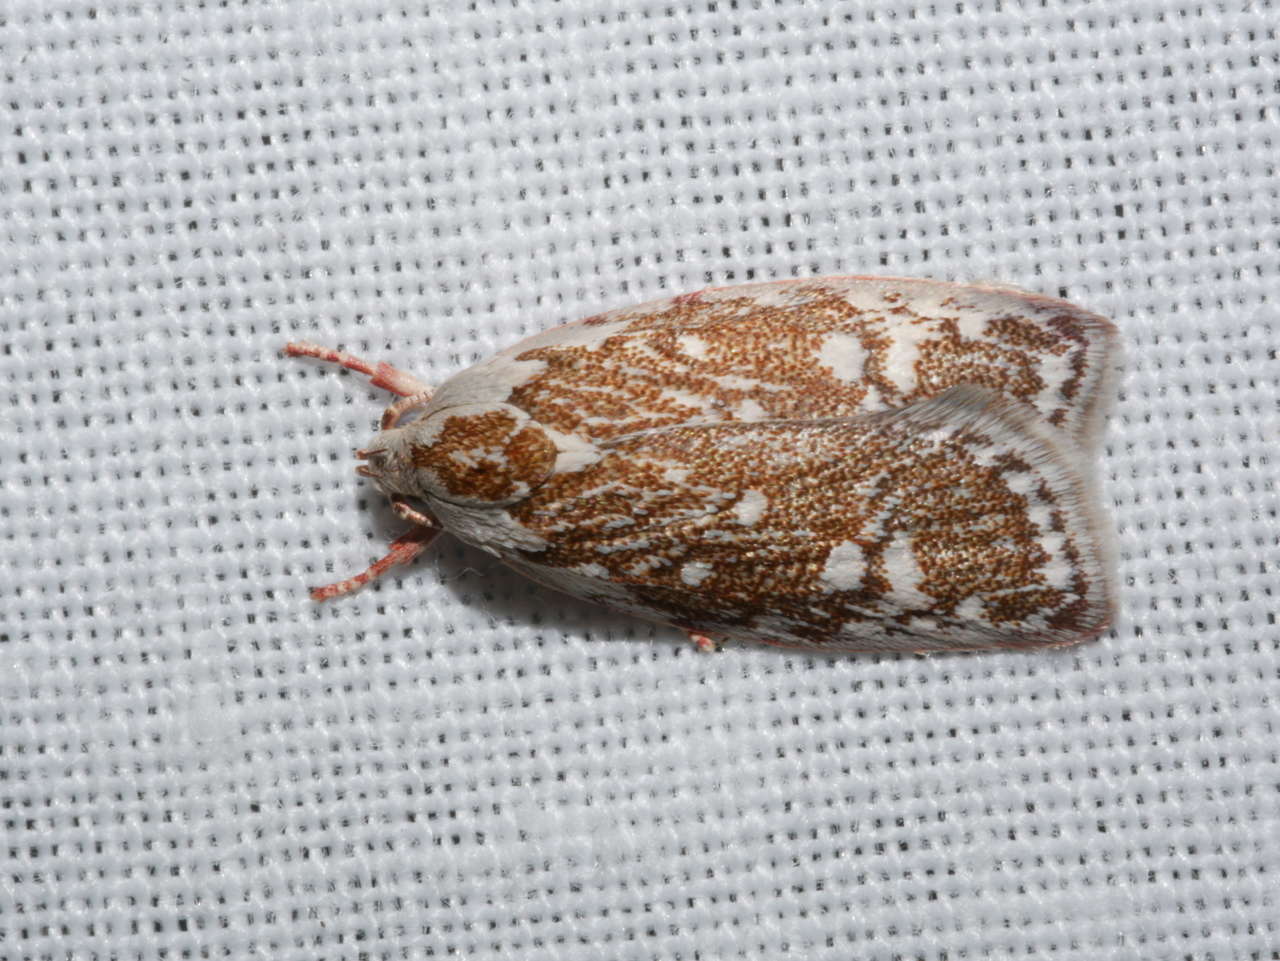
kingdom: Animalia
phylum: Arthropoda
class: Insecta
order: Lepidoptera
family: Oecophoridae
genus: Euchaetis
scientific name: Euchaetis metallota
